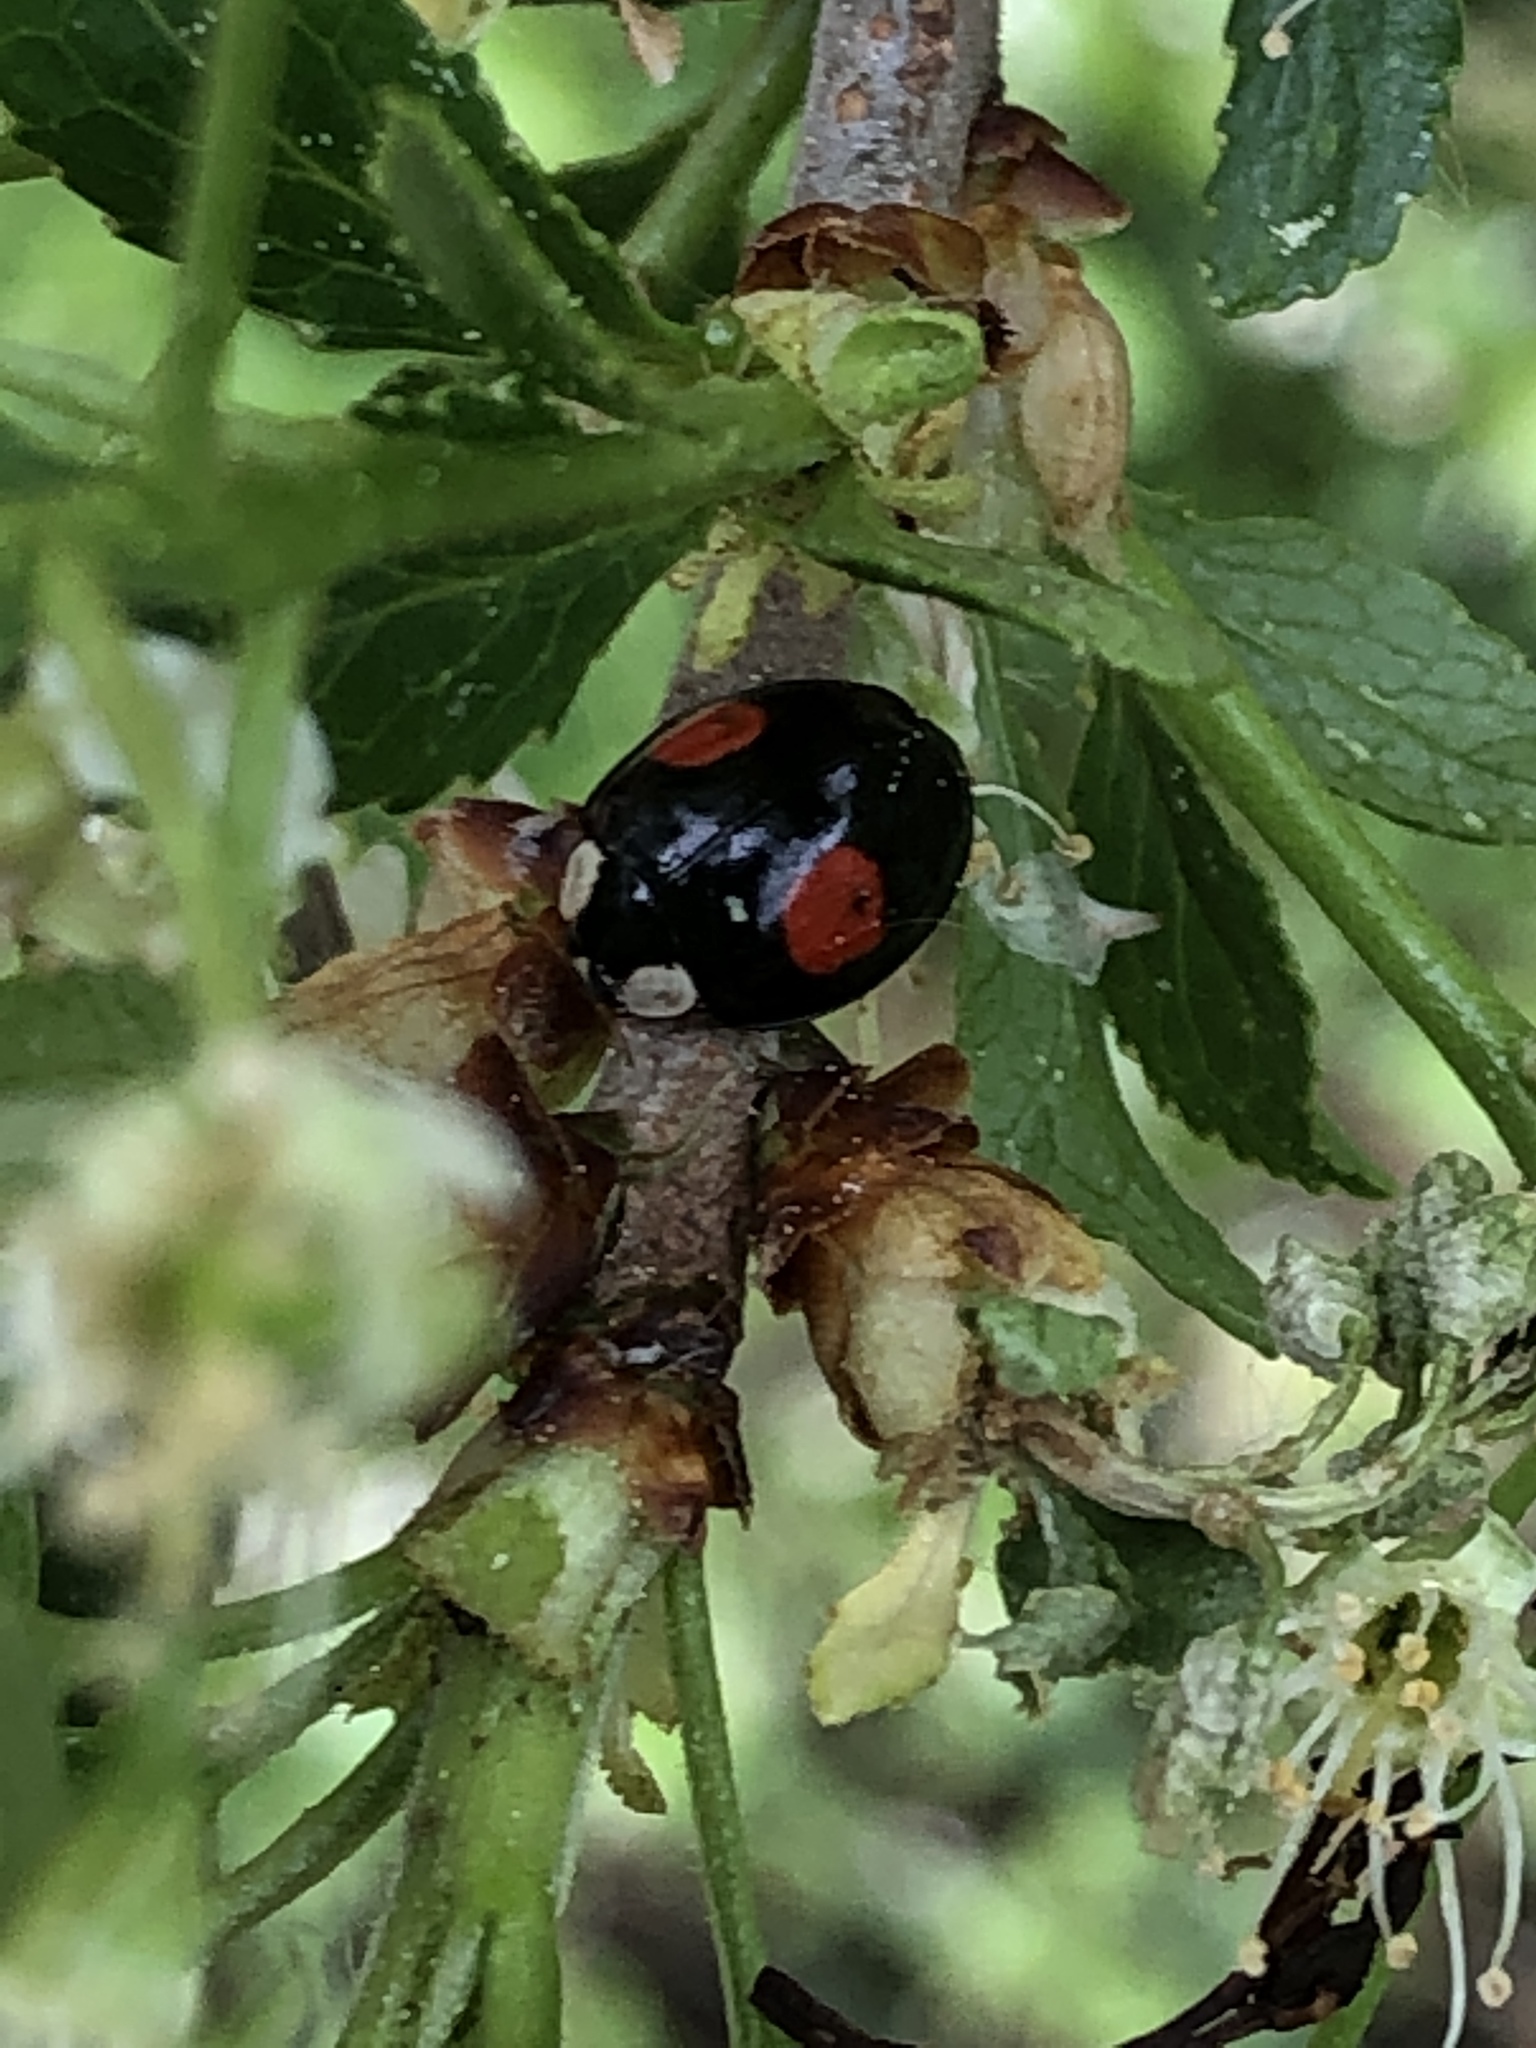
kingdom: Animalia
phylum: Arthropoda
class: Insecta
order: Coleoptera
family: Coccinellidae
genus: Harmonia
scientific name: Harmonia axyridis
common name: Harlequin ladybird
